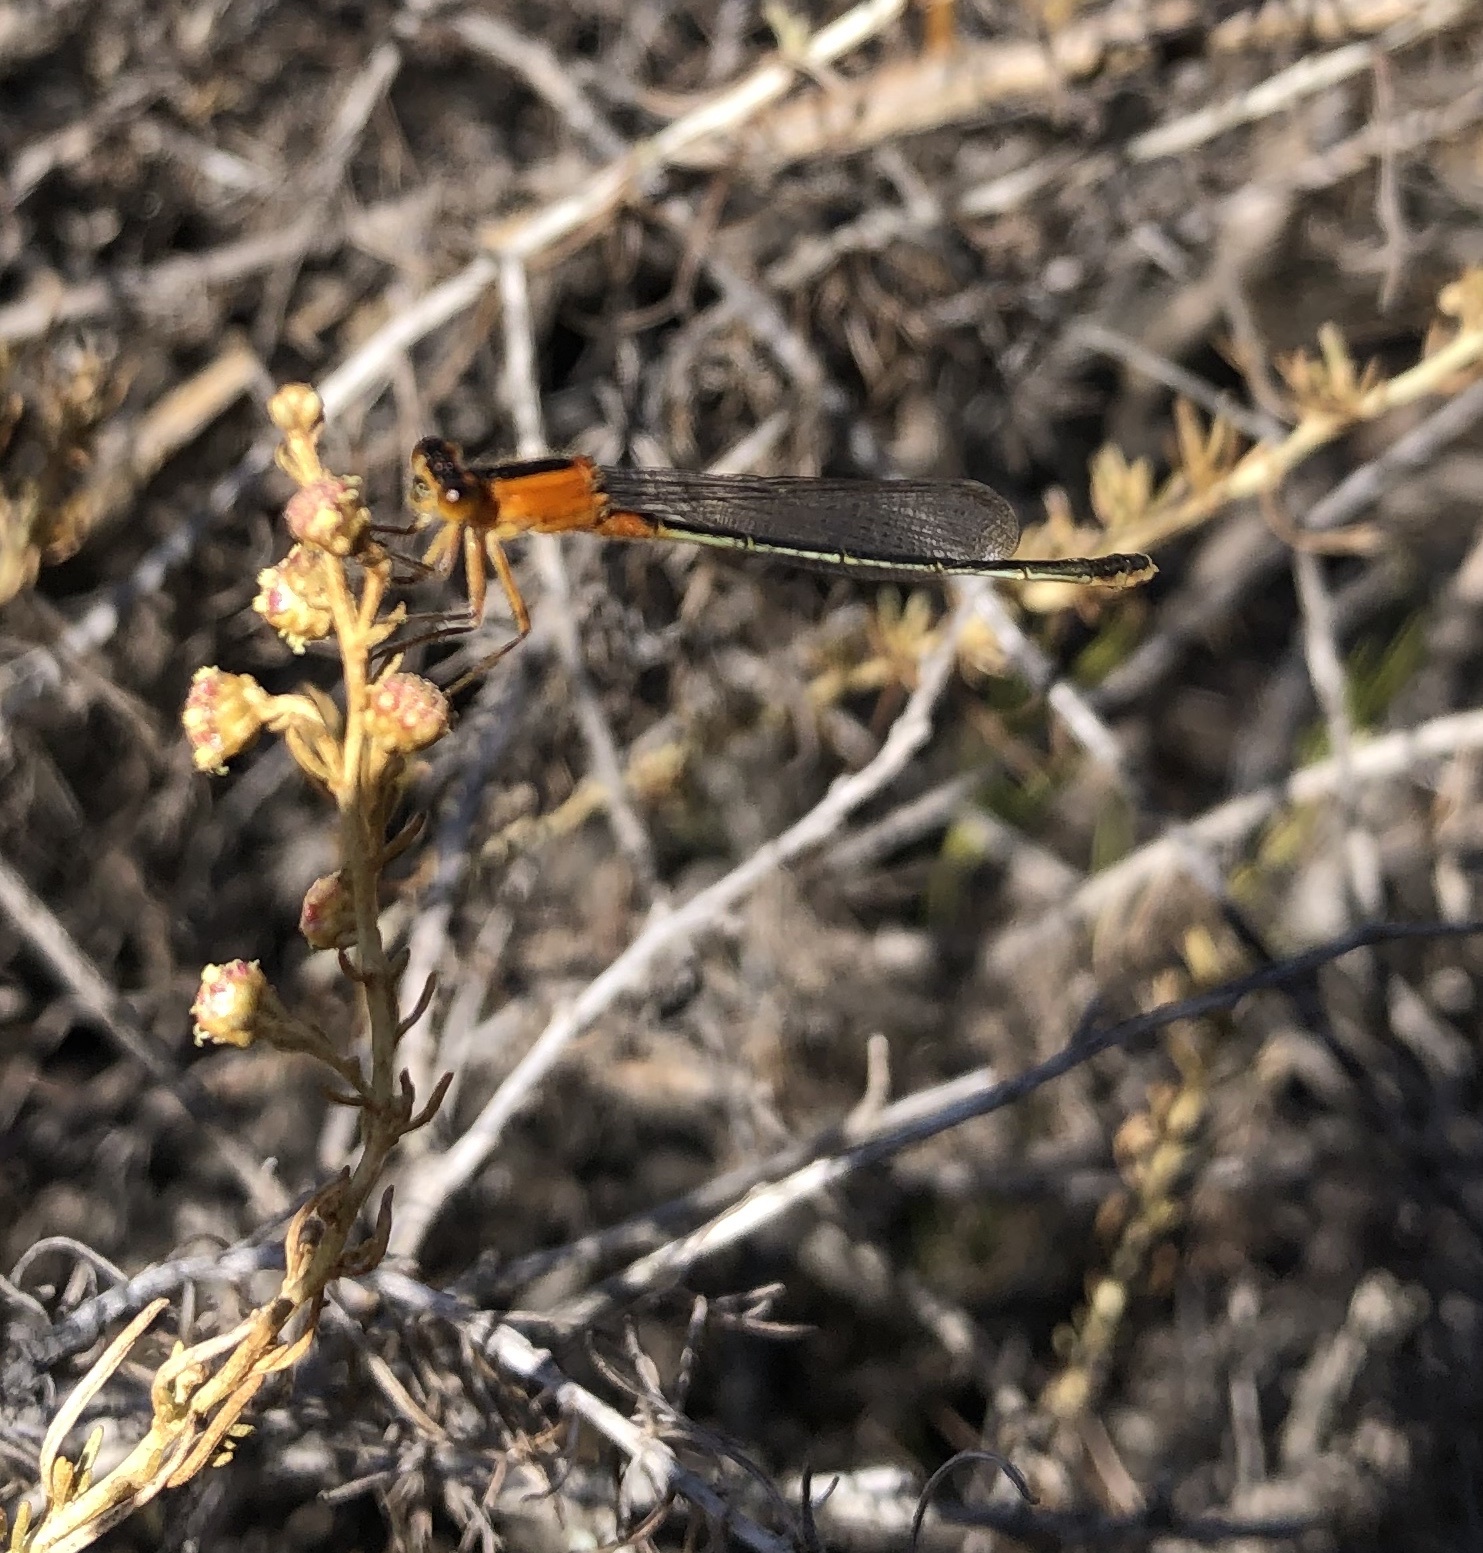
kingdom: Animalia
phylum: Arthropoda
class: Insecta
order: Odonata
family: Coenagrionidae
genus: Ischnura
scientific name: Ischnura ramburii
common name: Rambur's forktail
